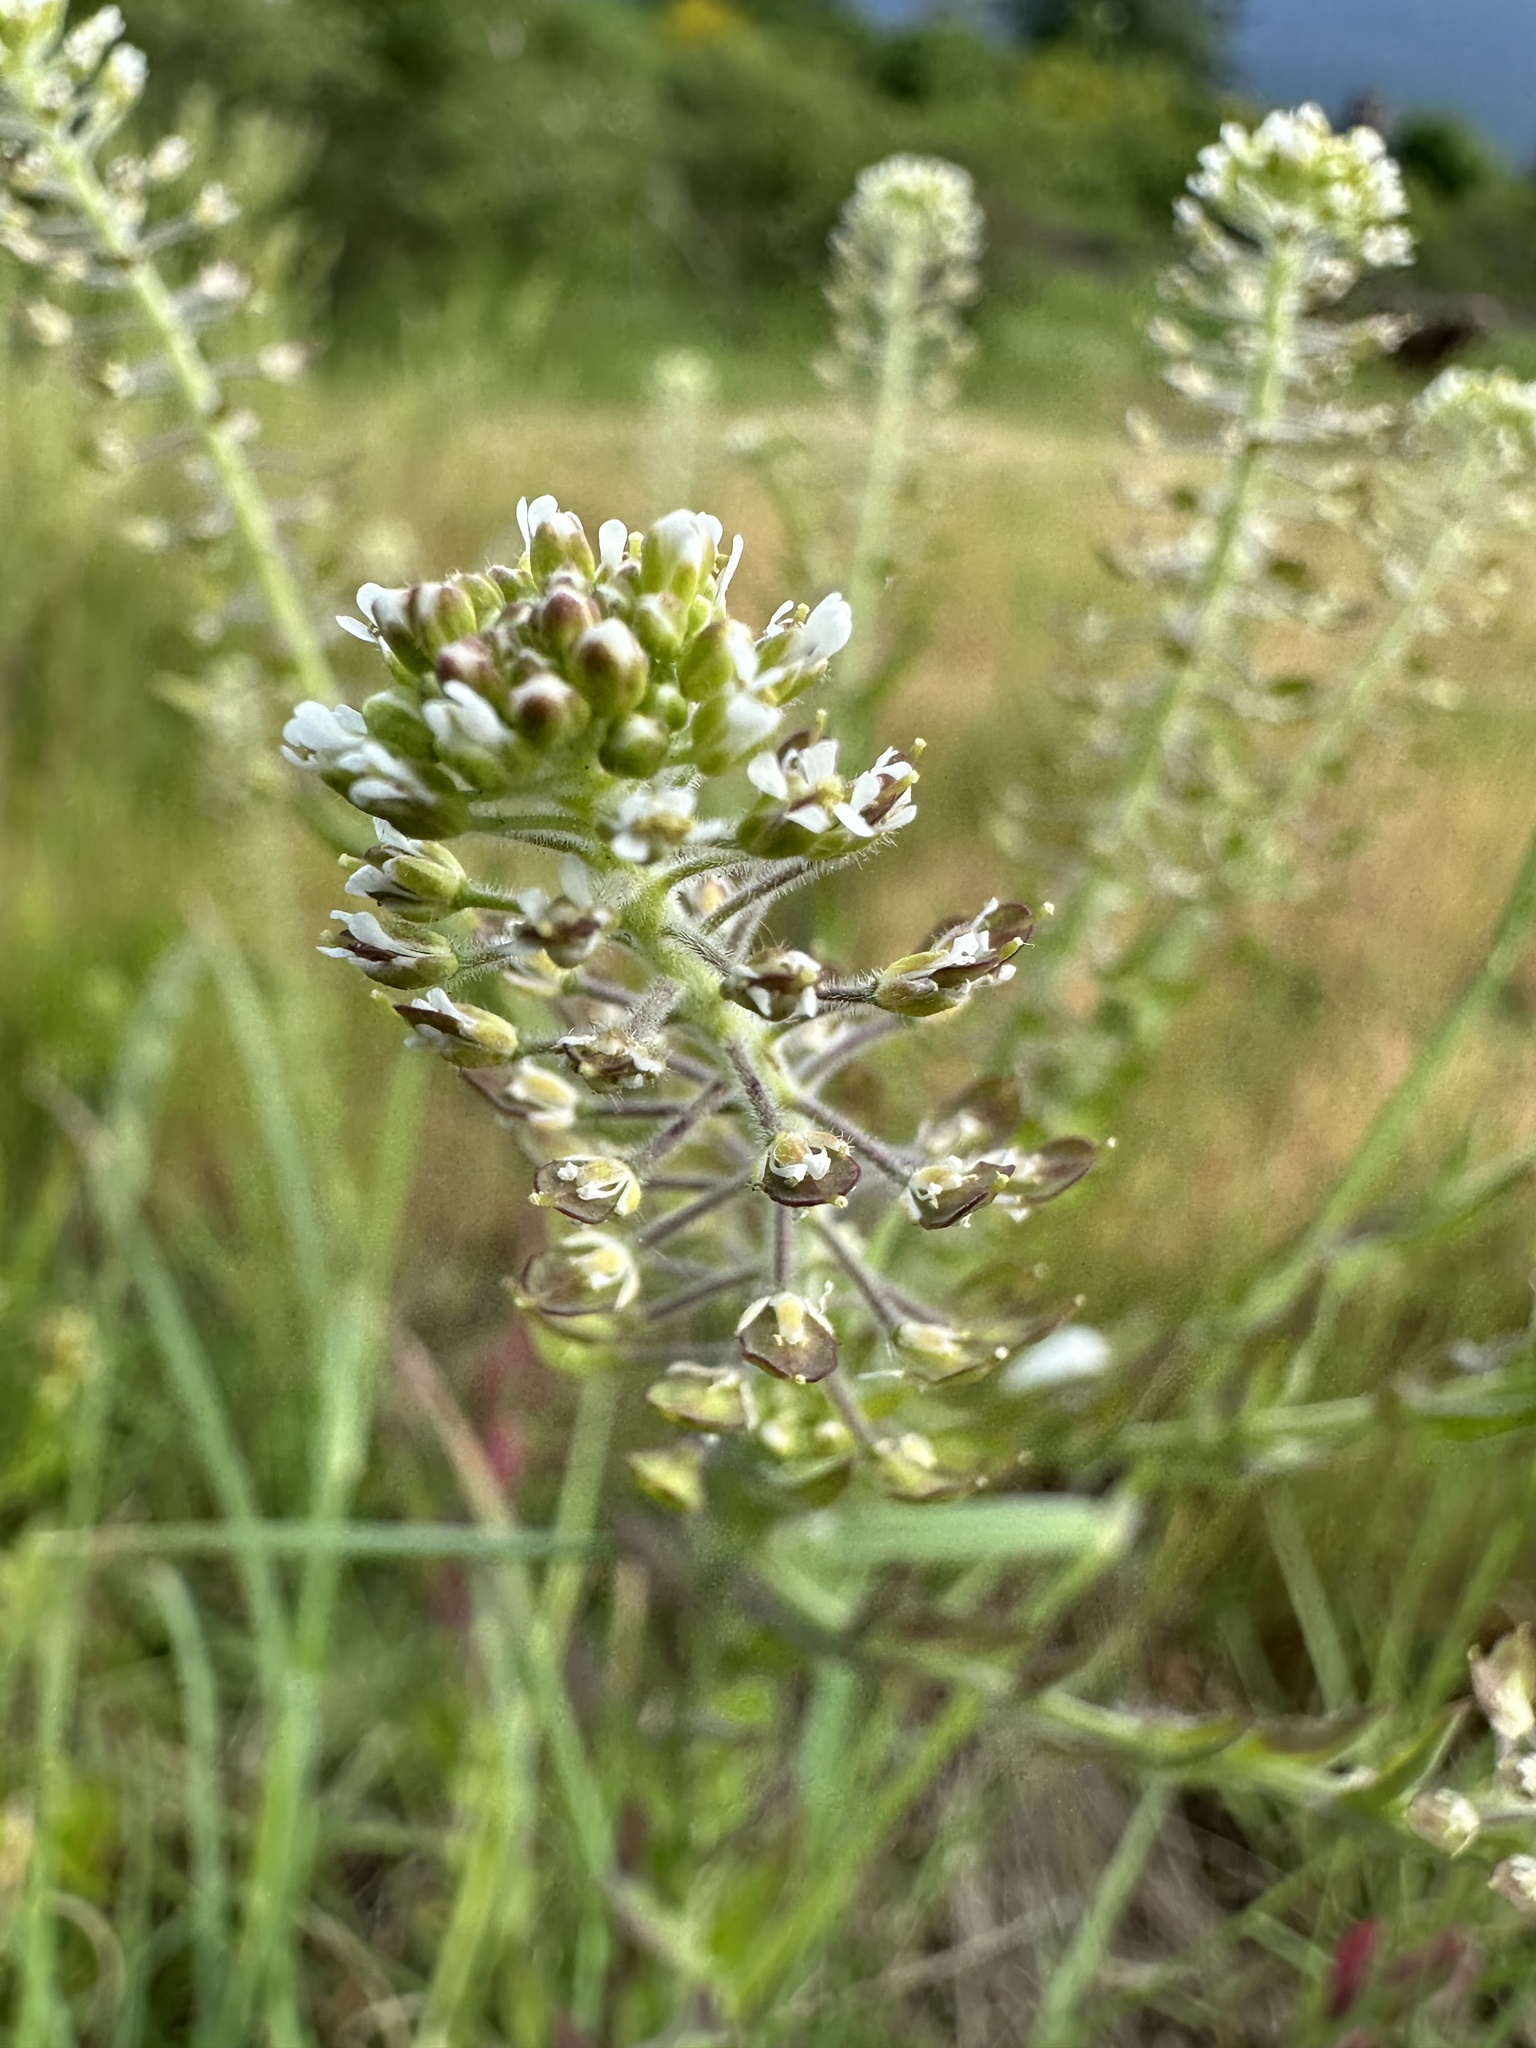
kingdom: Plantae
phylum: Tracheophyta
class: Magnoliopsida
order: Brassicales
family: Brassicaceae
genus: Lepidium
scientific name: Lepidium campestre
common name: Field pepperwort
